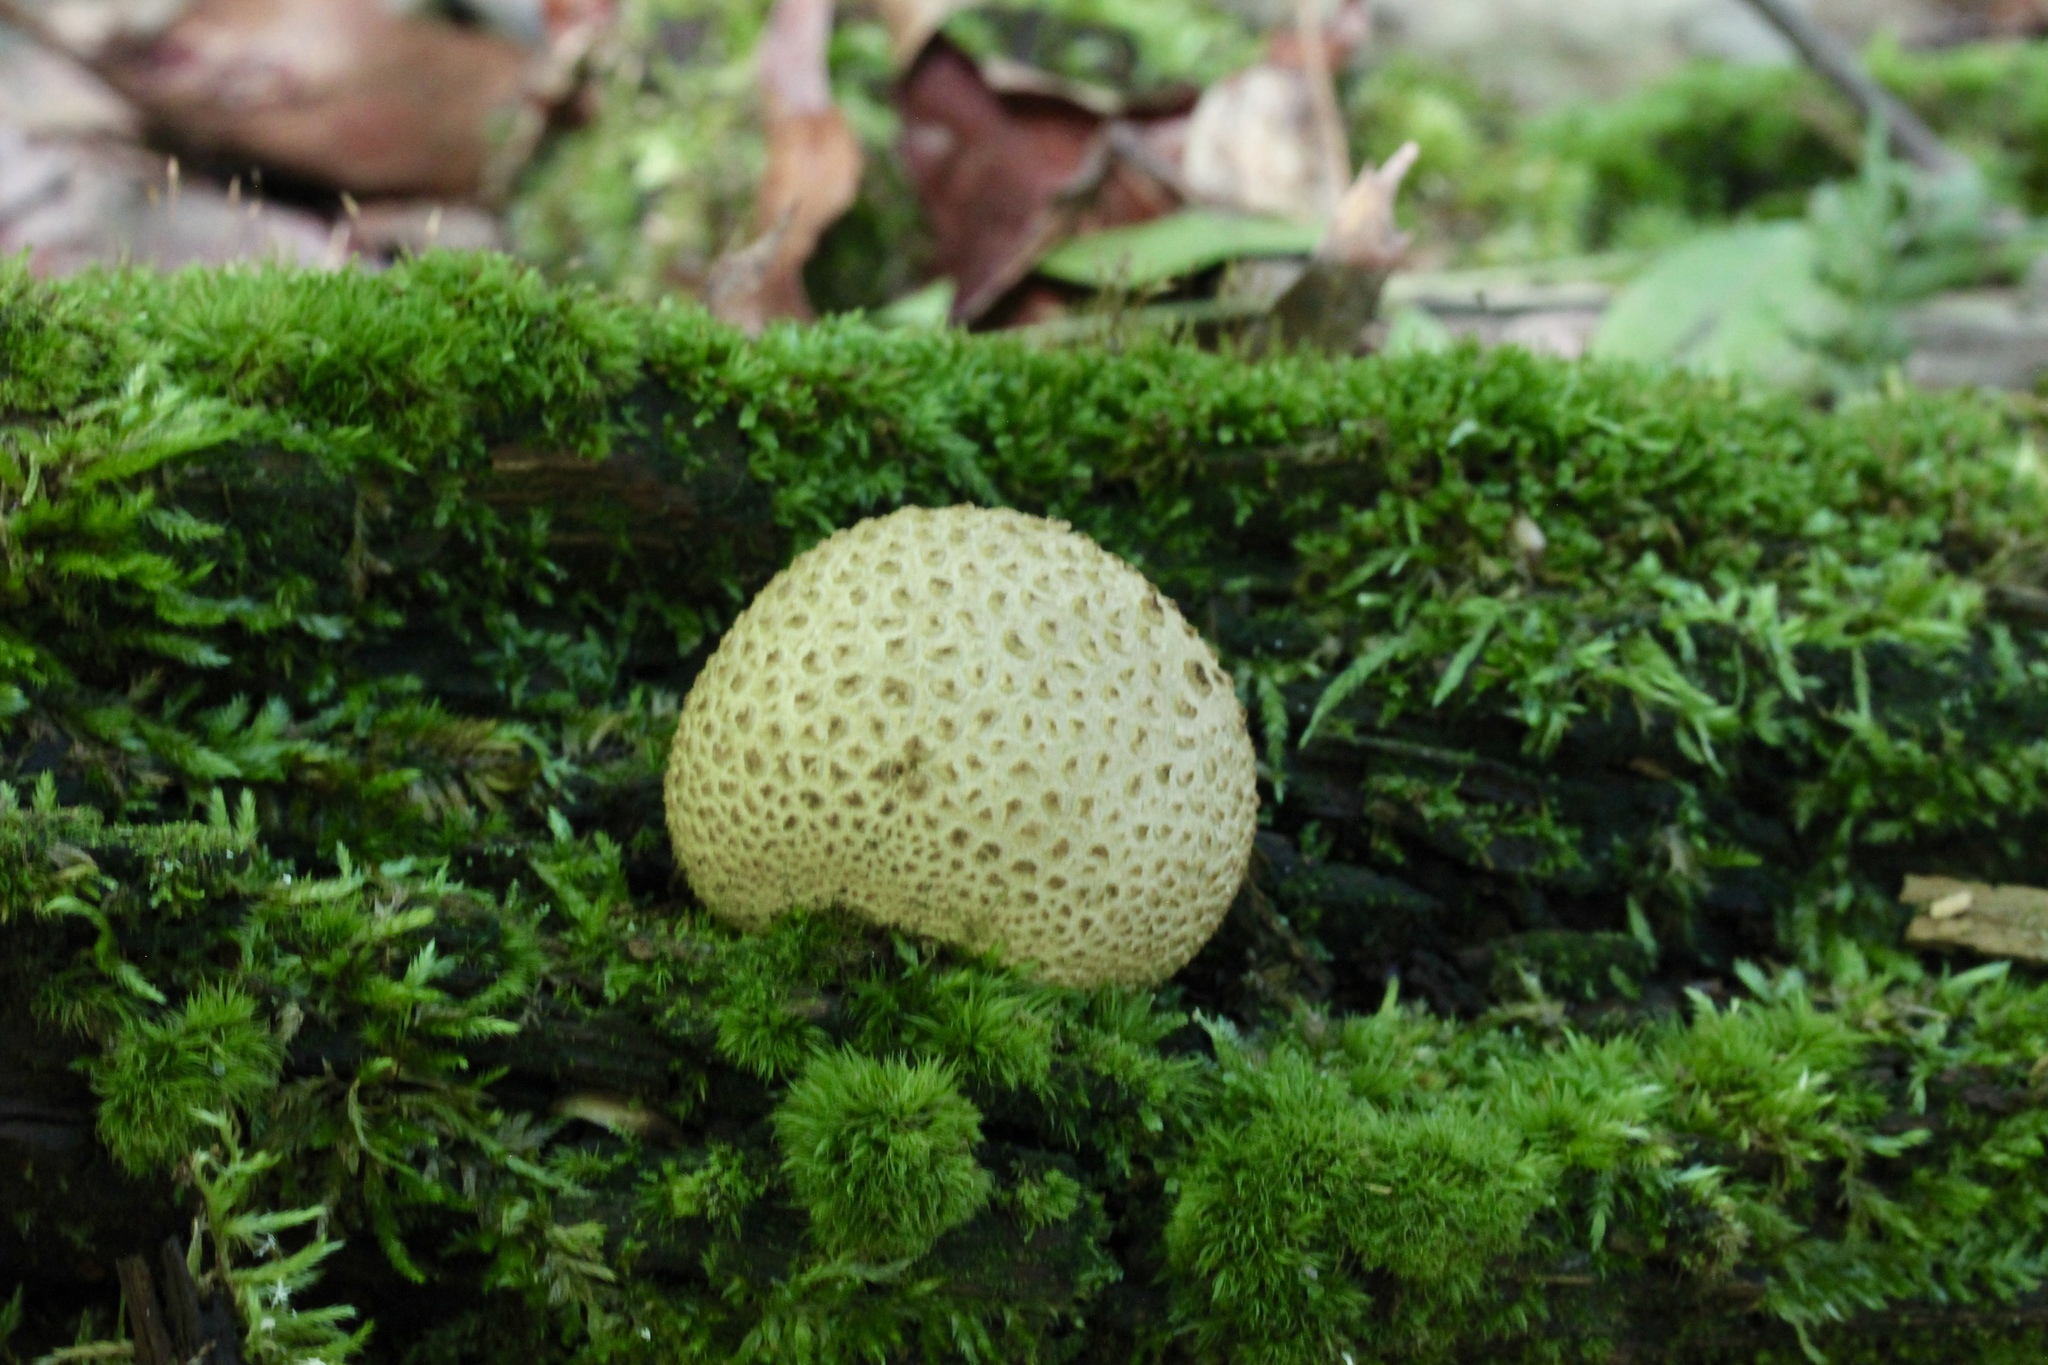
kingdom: Fungi
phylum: Basidiomycota
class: Agaricomycetes
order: Boletales
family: Sclerodermataceae
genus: Scleroderma
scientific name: Scleroderma citrinum
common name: Common earthball
